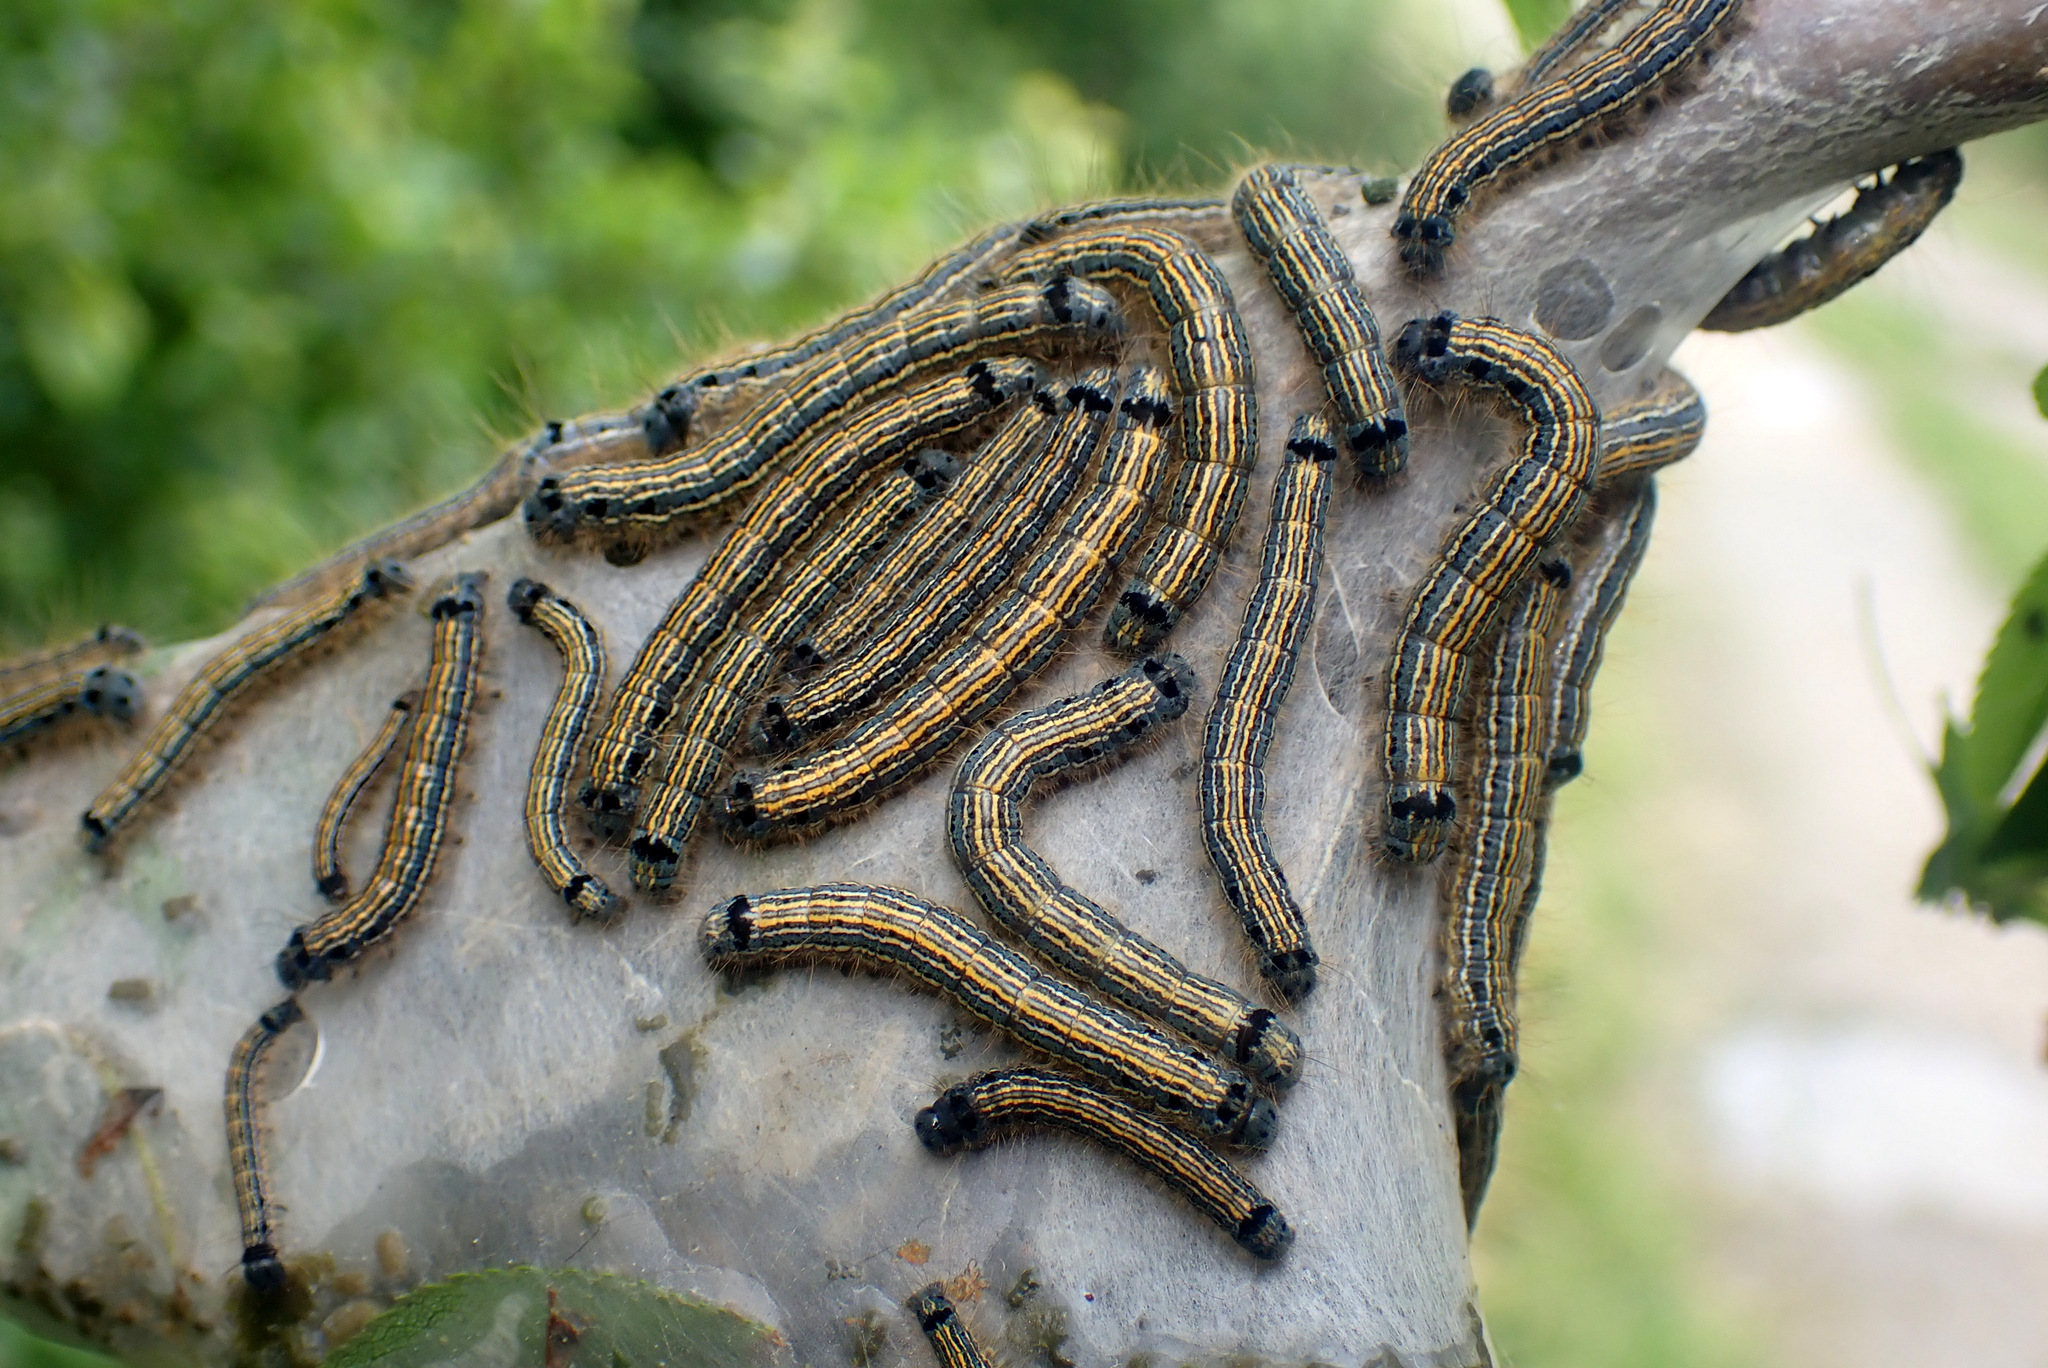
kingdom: Animalia
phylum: Arthropoda
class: Insecta
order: Lepidoptera
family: Lasiocampidae
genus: Malacosoma
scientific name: Malacosoma neustria
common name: The lackey
